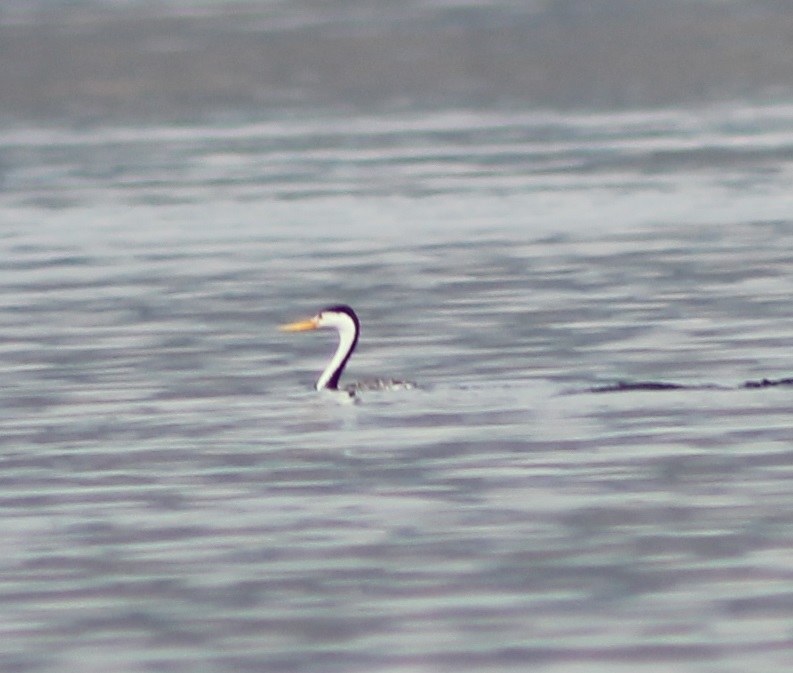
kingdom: Animalia
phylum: Chordata
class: Aves
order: Podicipediformes
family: Podicipedidae
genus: Aechmophorus
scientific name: Aechmophorus clarkii
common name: Clark's grebe
